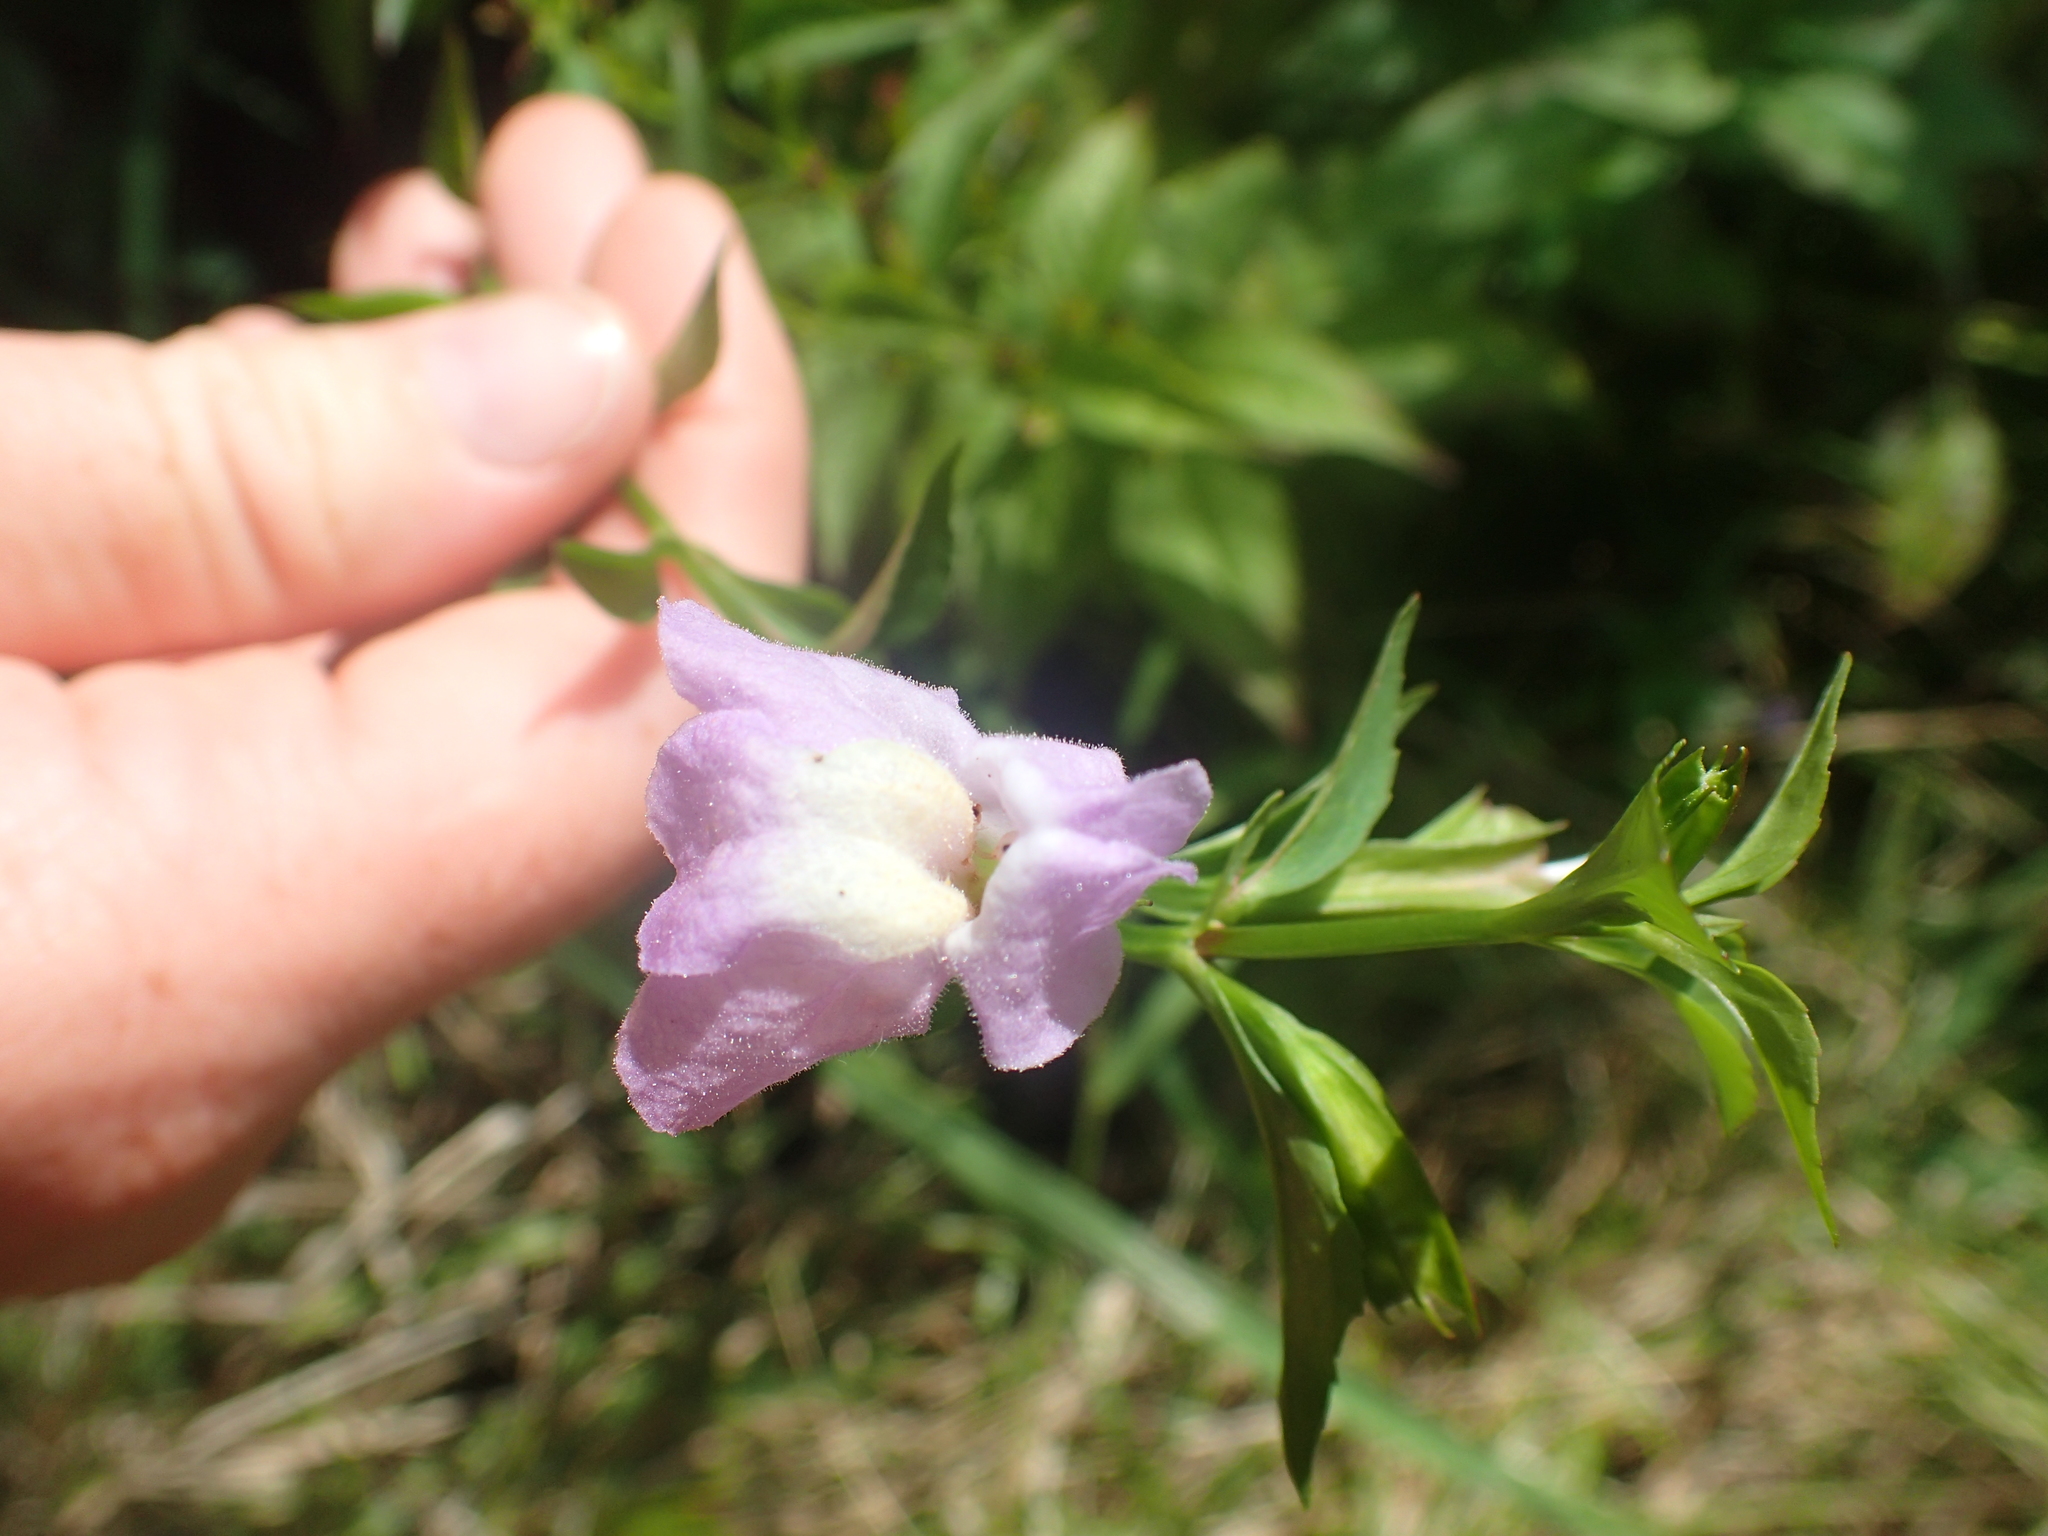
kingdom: Plantae
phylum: Tracheophyta
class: Magnoliopsida
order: Lamiales
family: Phrymaceae
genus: Mimulus
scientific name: Mimulus alatus
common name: Sharp-wing monkey-flower
